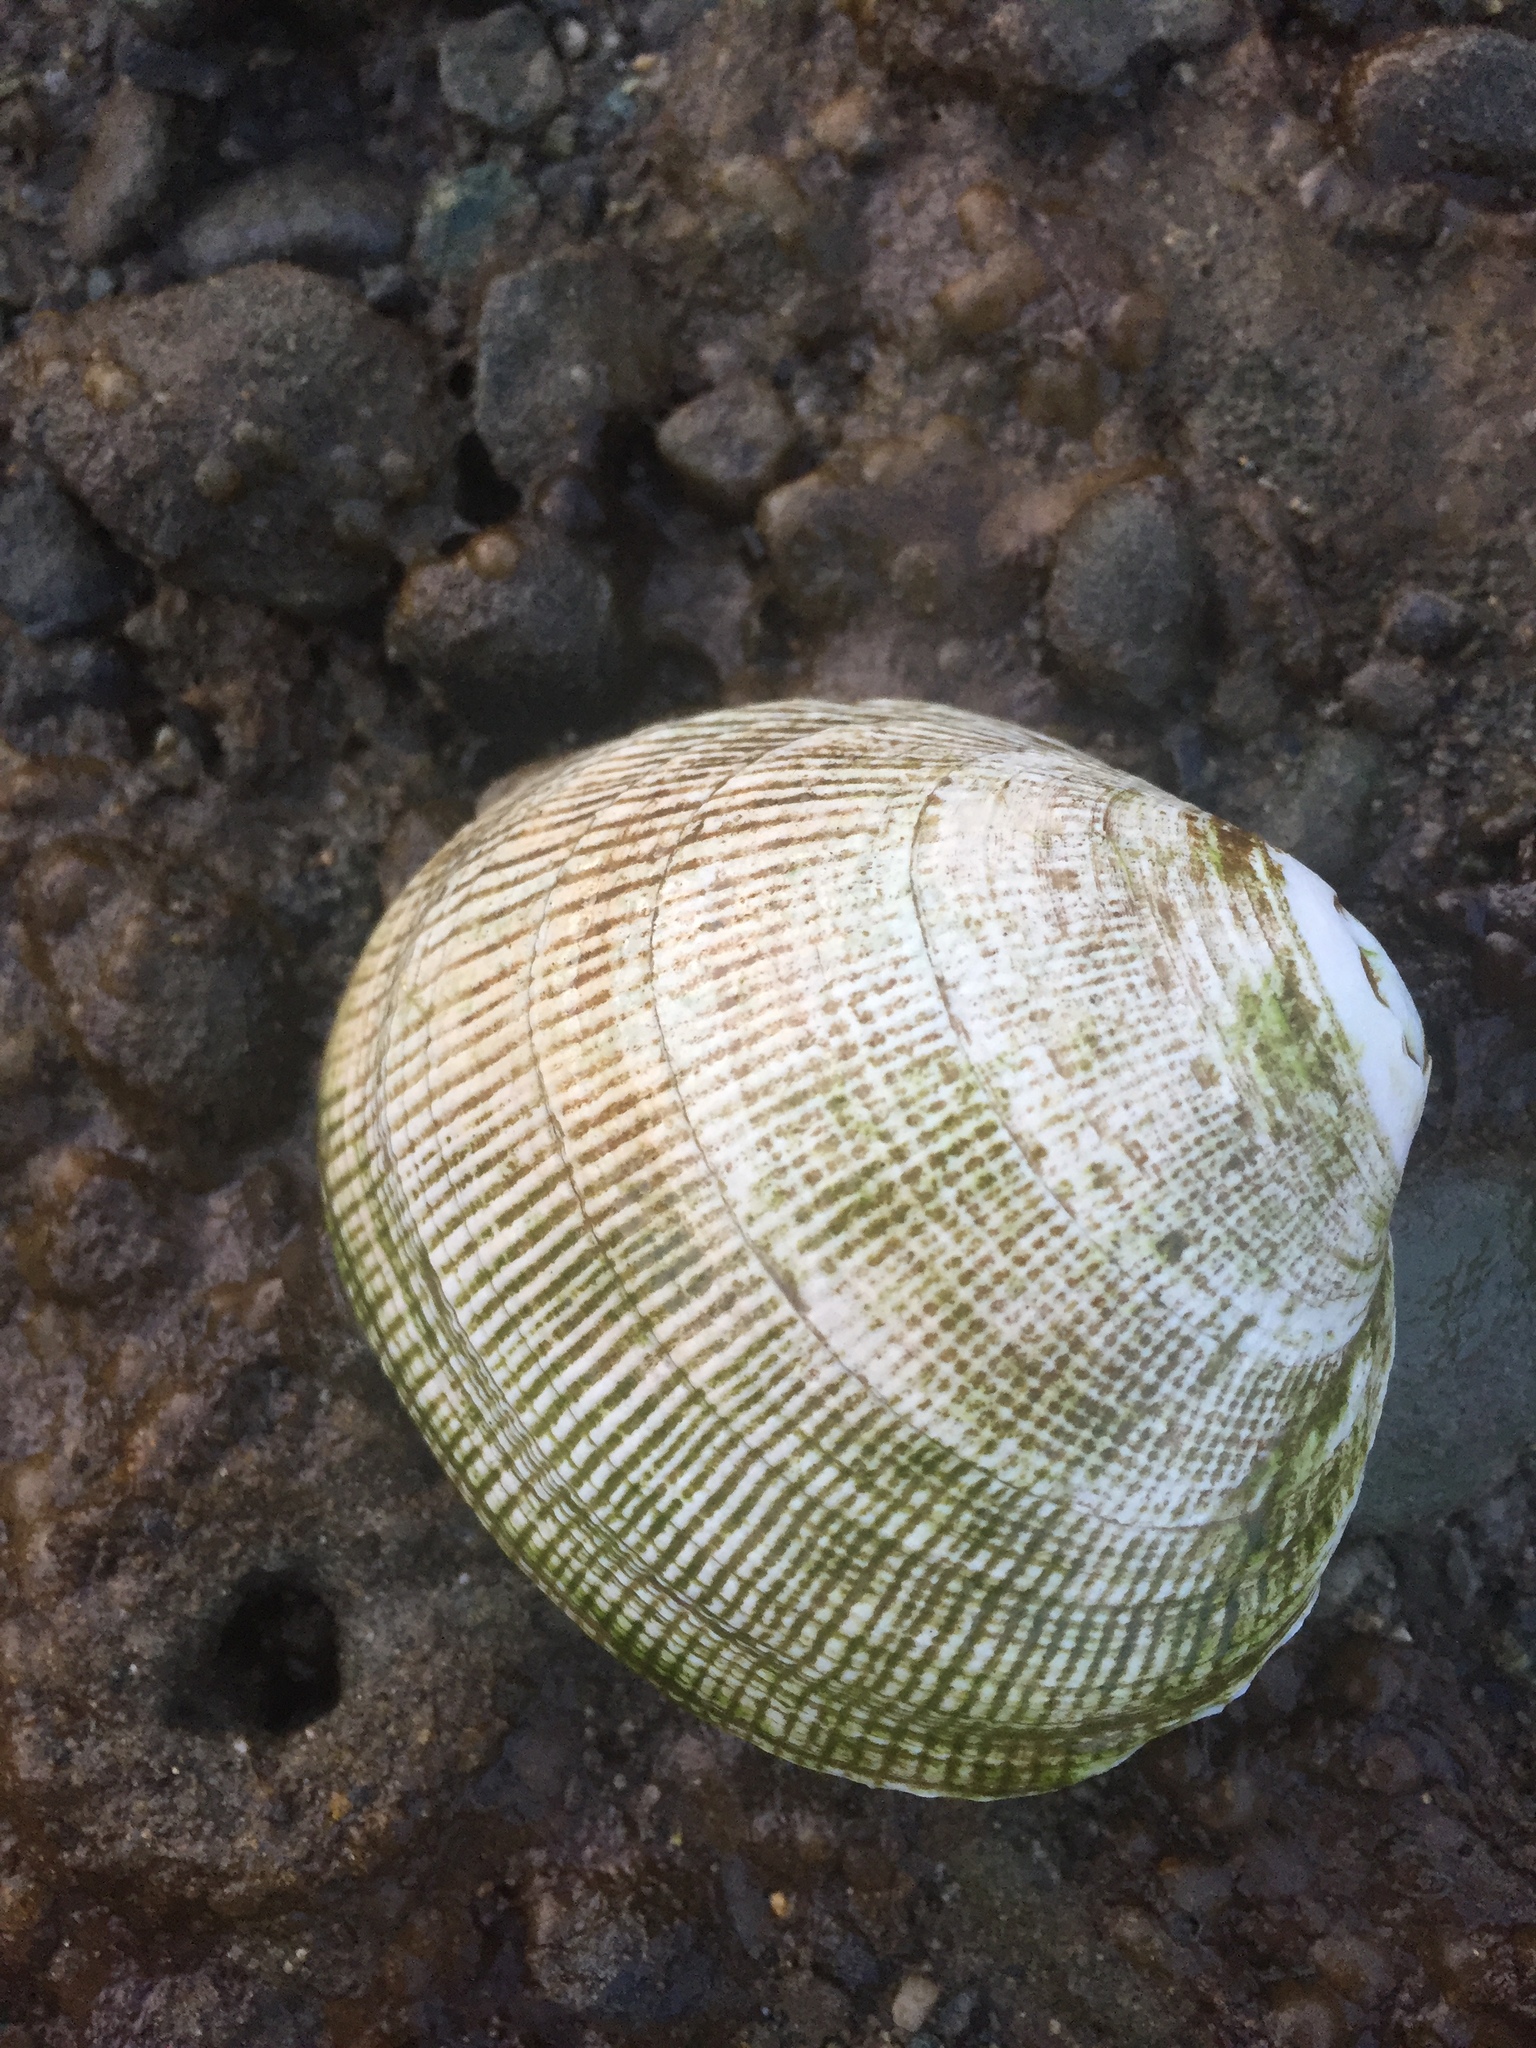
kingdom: Animalia
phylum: Mollusca
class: Bivalvia
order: Venerida
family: Veneridae
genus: Leukoma
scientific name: Leukoma staminea
